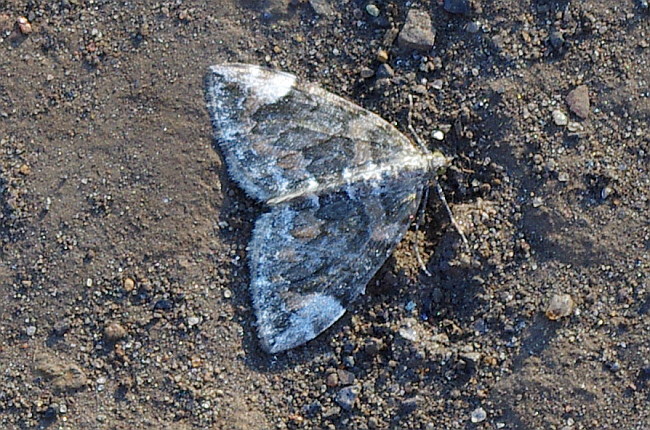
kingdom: Animalia
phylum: Arthropoda
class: Insecta
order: Lepidoptera
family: Geometridae
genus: Dysstroma
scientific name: Dysstroma citrata
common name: Dark marbled carpet
